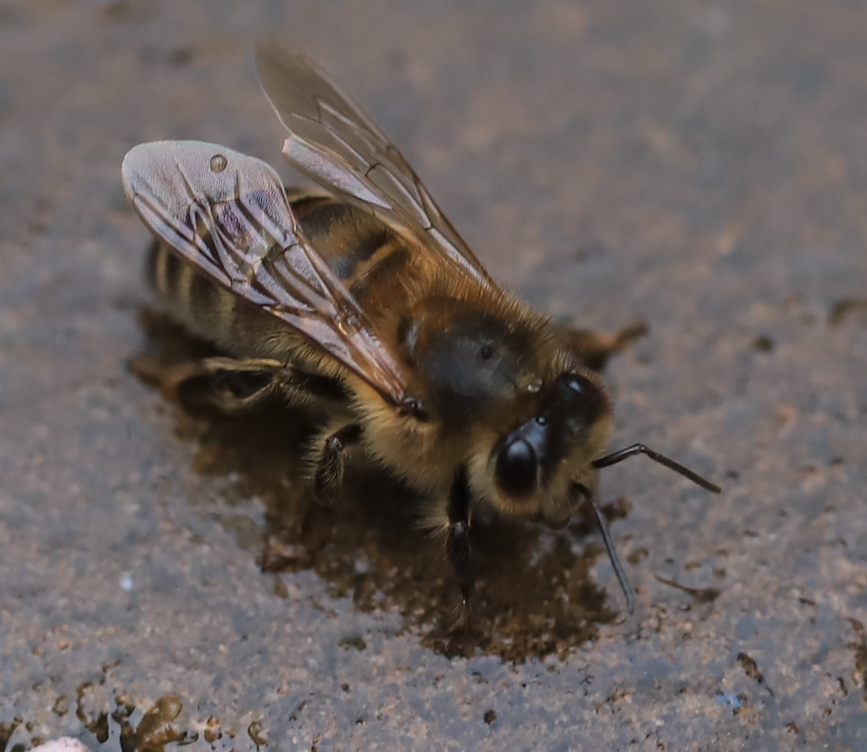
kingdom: Animalia
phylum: Arthropoda
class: Insecta
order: Hymenoptera
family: Apidae
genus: Apis
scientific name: Apis mellifera
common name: Honey bee
